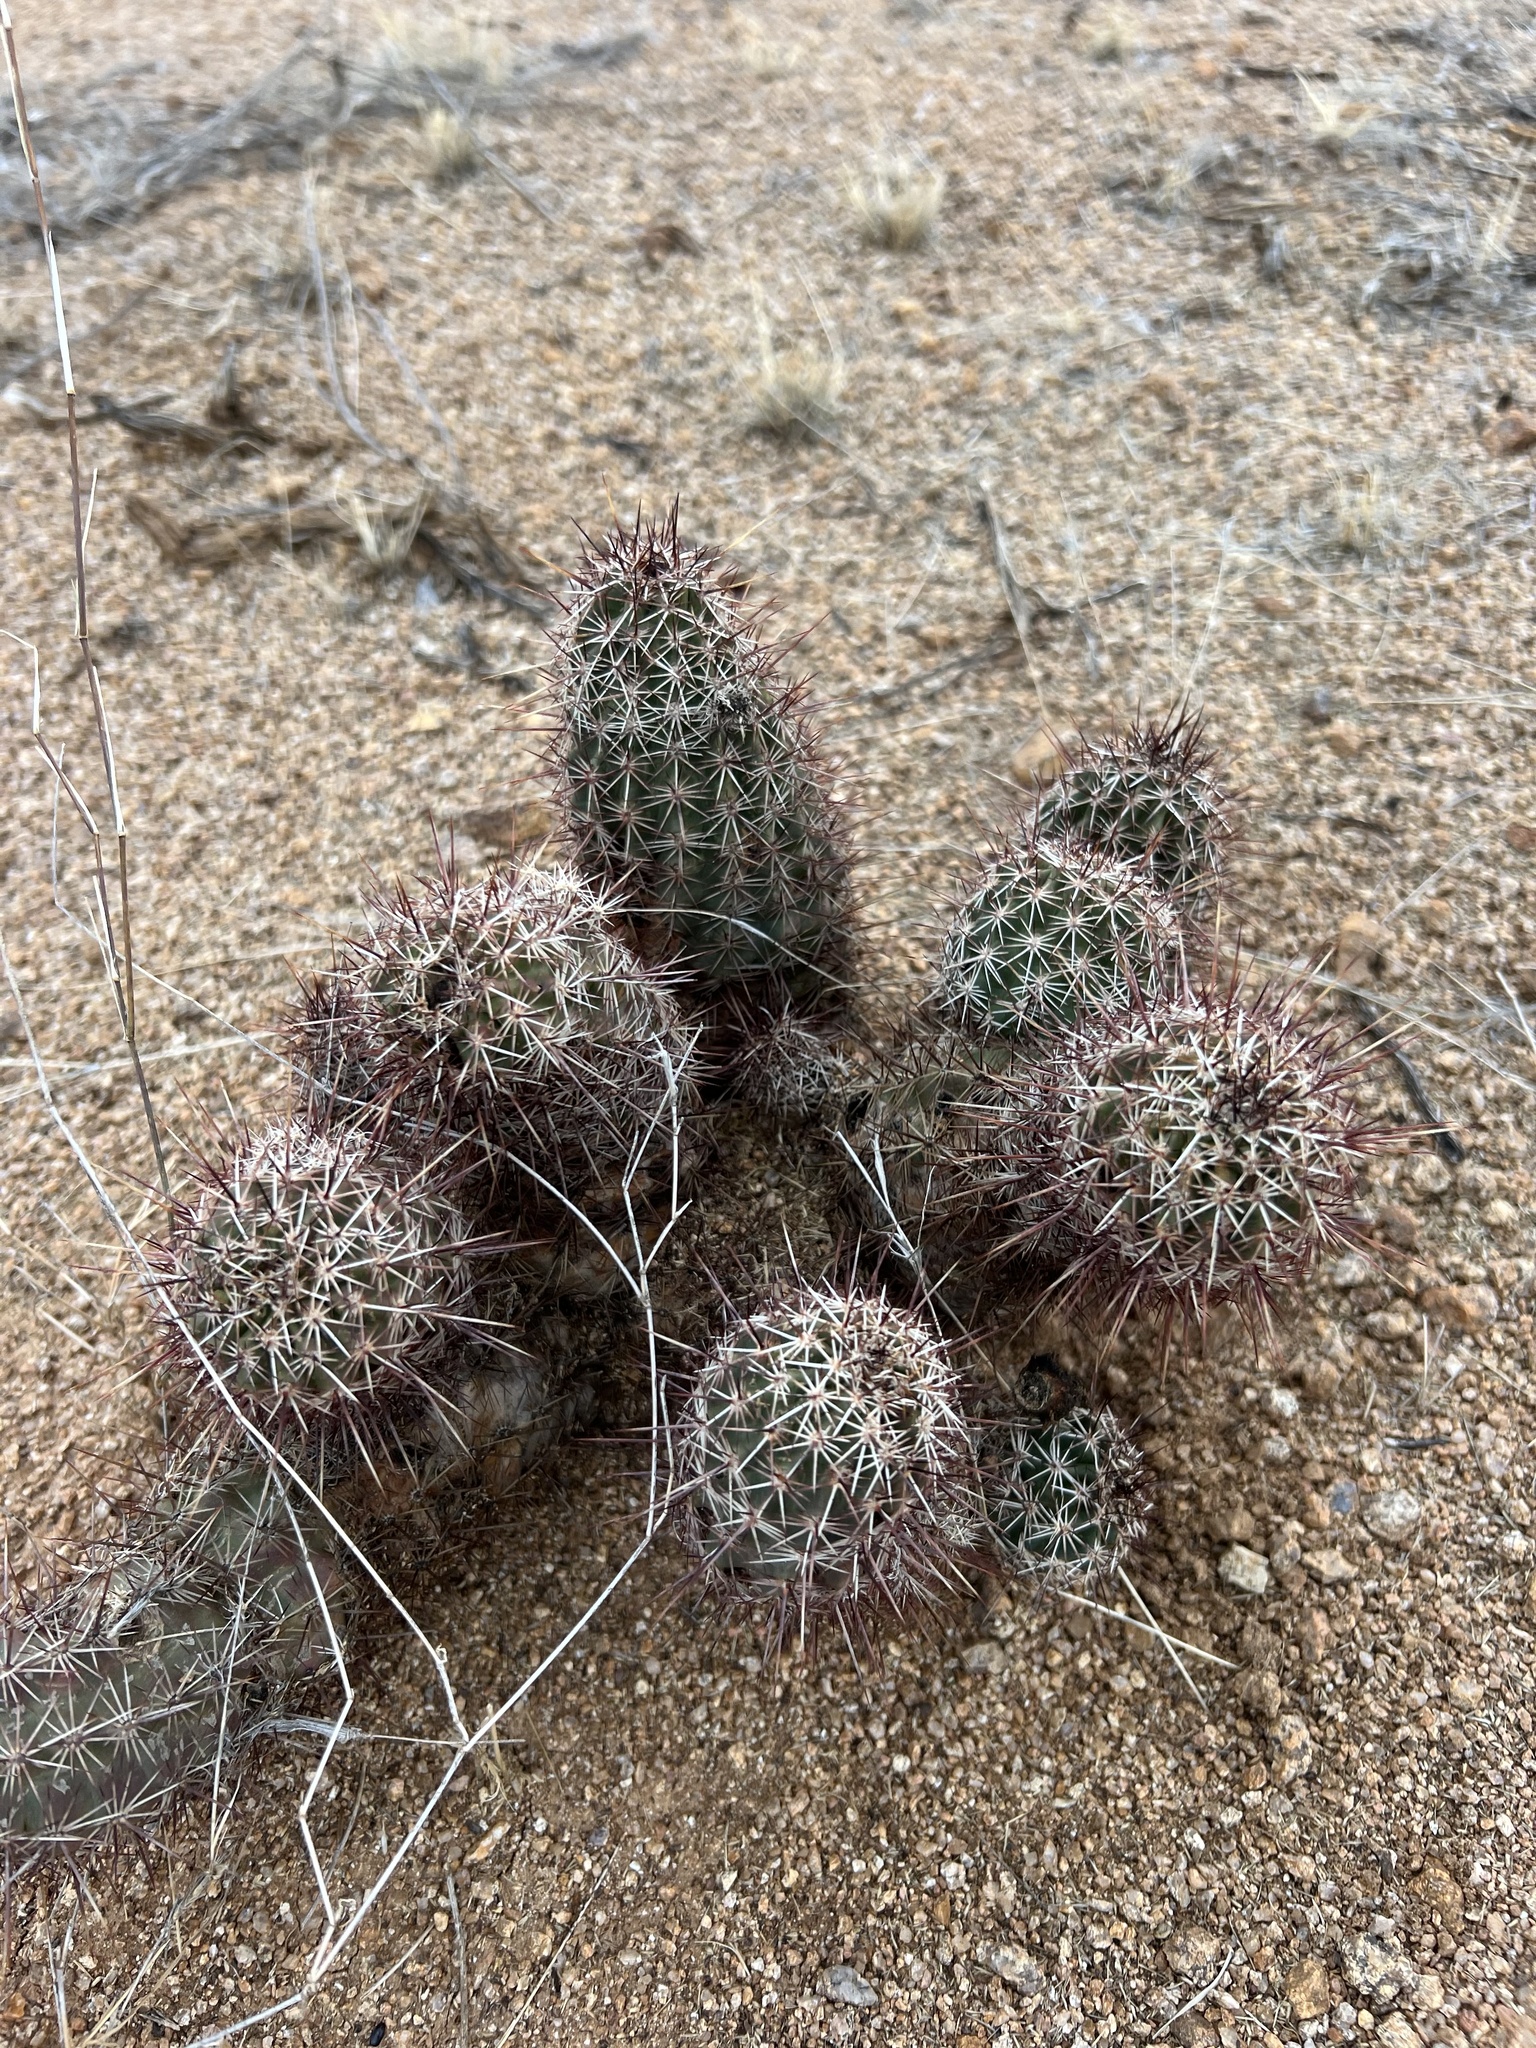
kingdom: Plantae
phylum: Tracheophyta
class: Magnoliopsida
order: Caryophyllales
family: Cactaceae
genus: Echinocereus
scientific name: Echinocereus fasciculatus
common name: Bundle hedgehog
